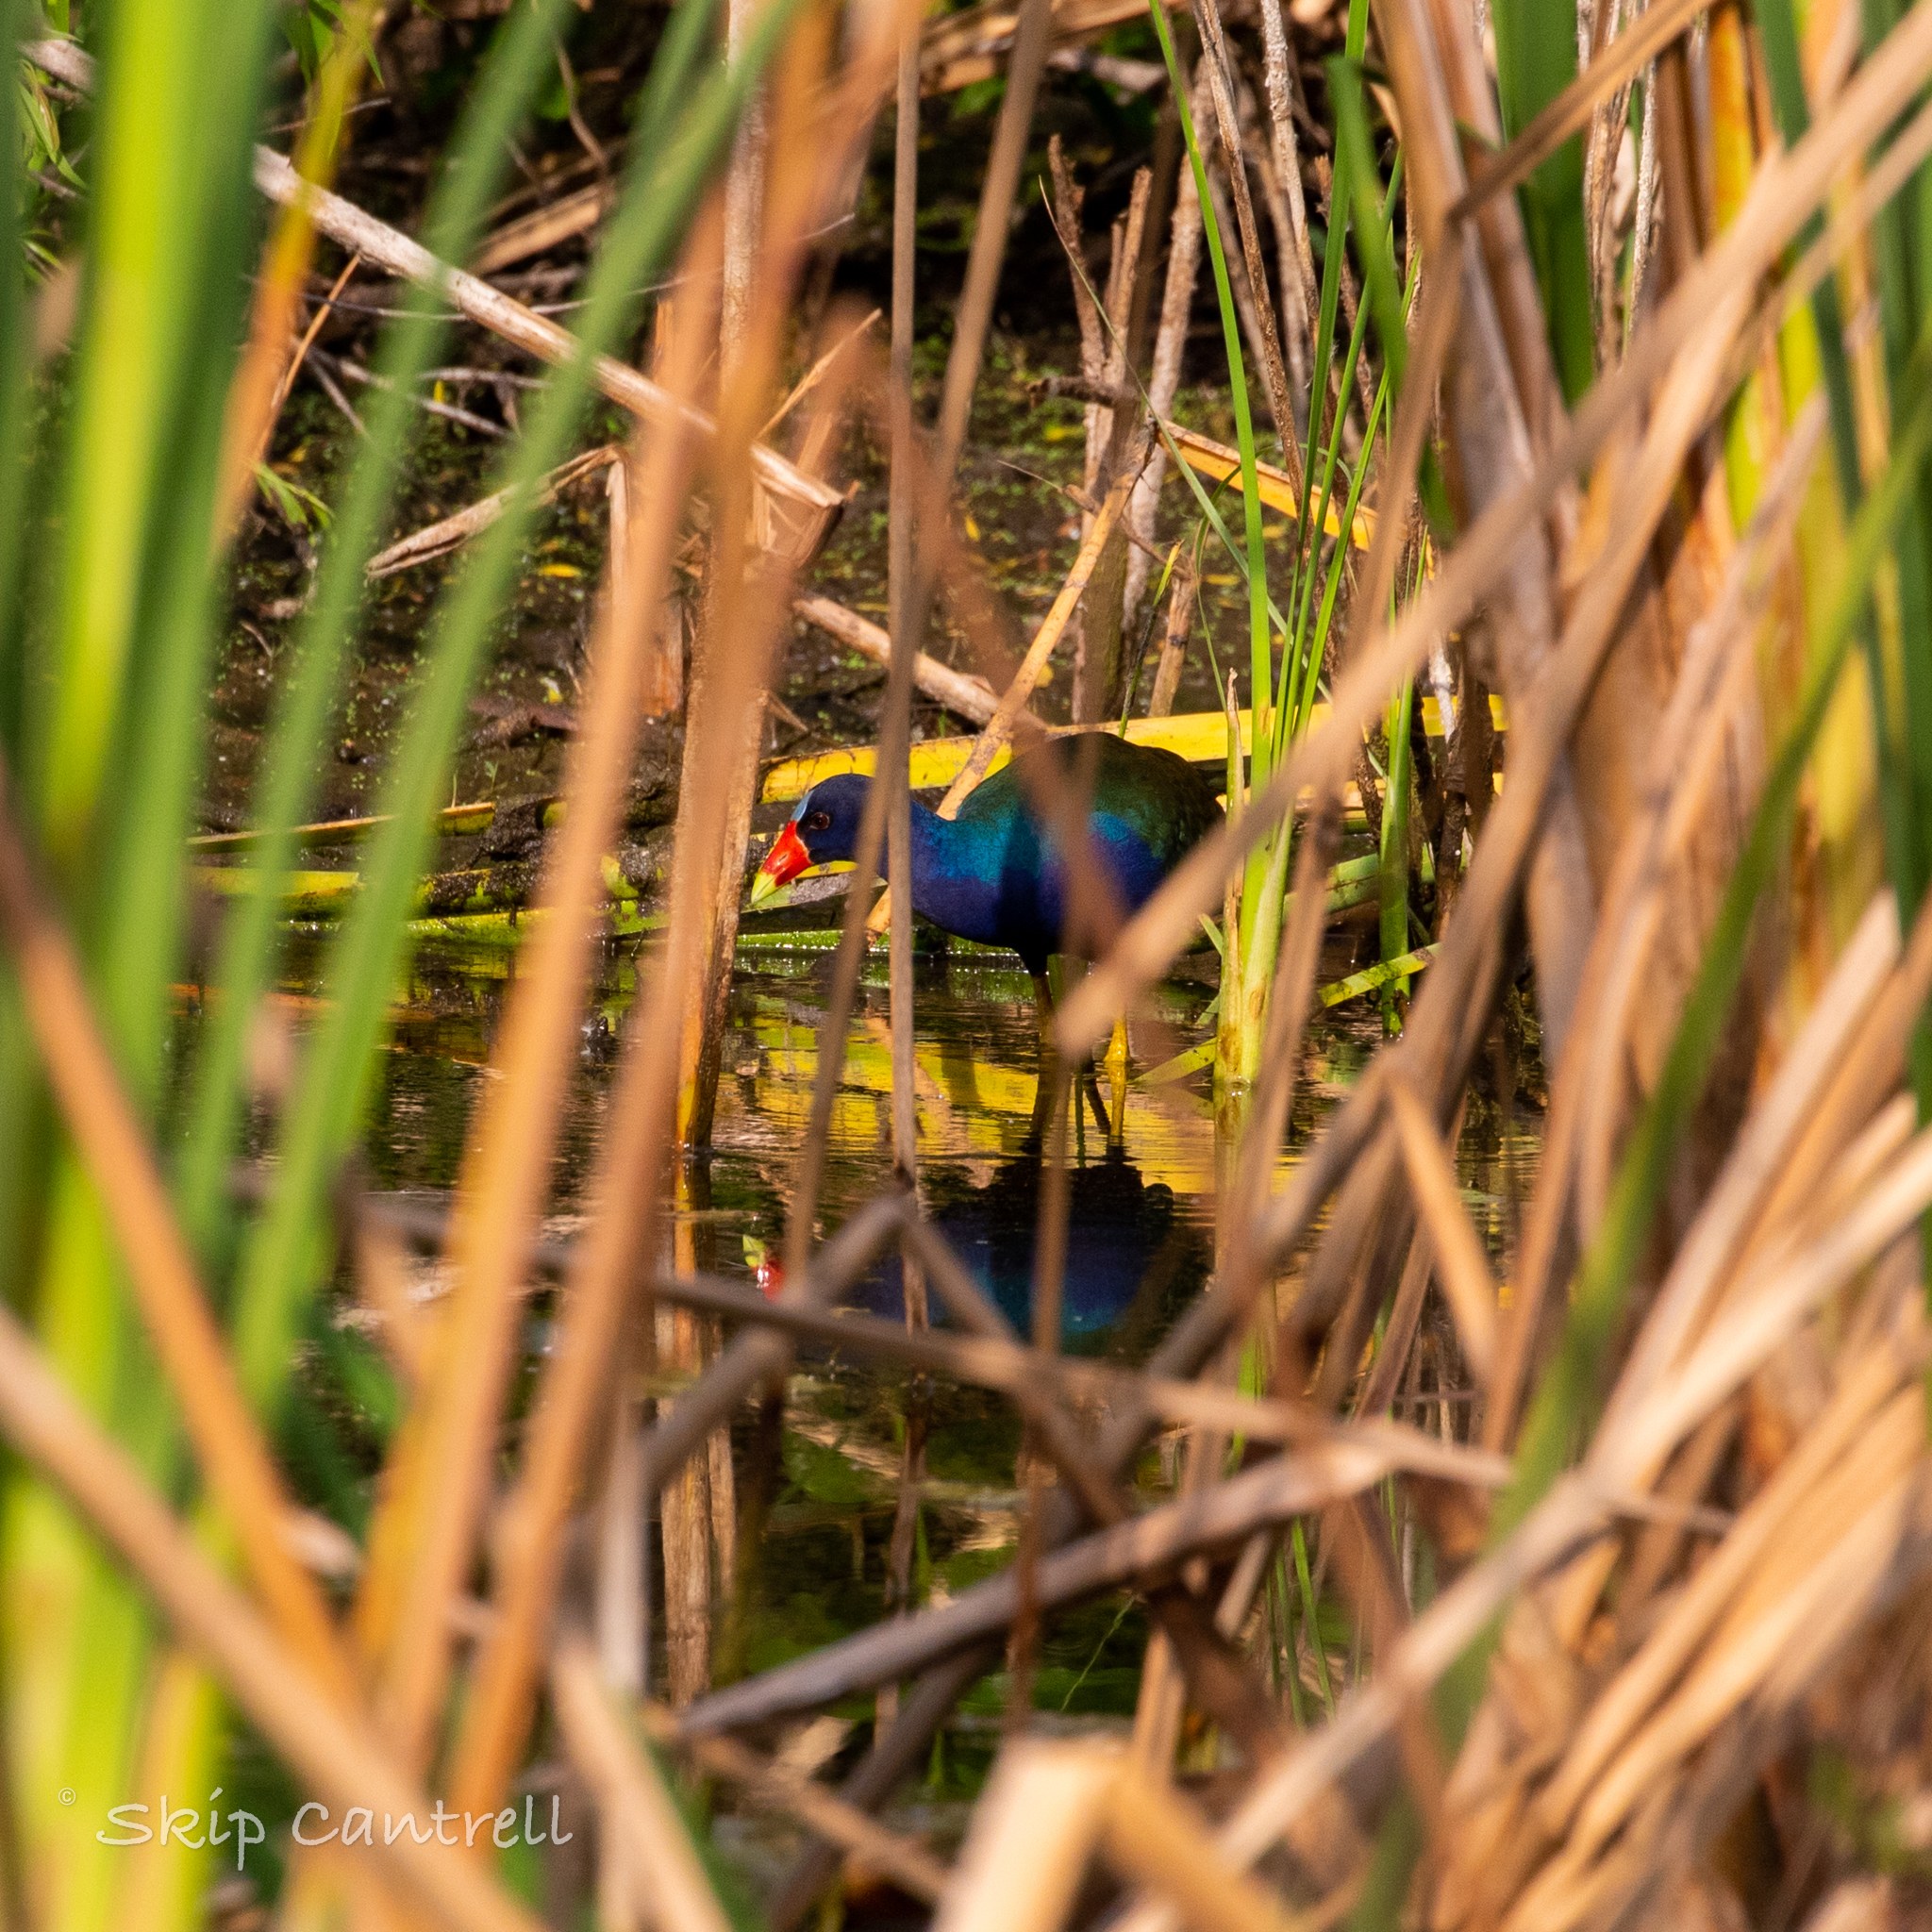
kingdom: Animalia
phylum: Chordata
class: Aves
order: Gruiformes
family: Rallidae
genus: Porphyrio
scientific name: Porphyrio martinica
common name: Purple gallinule
